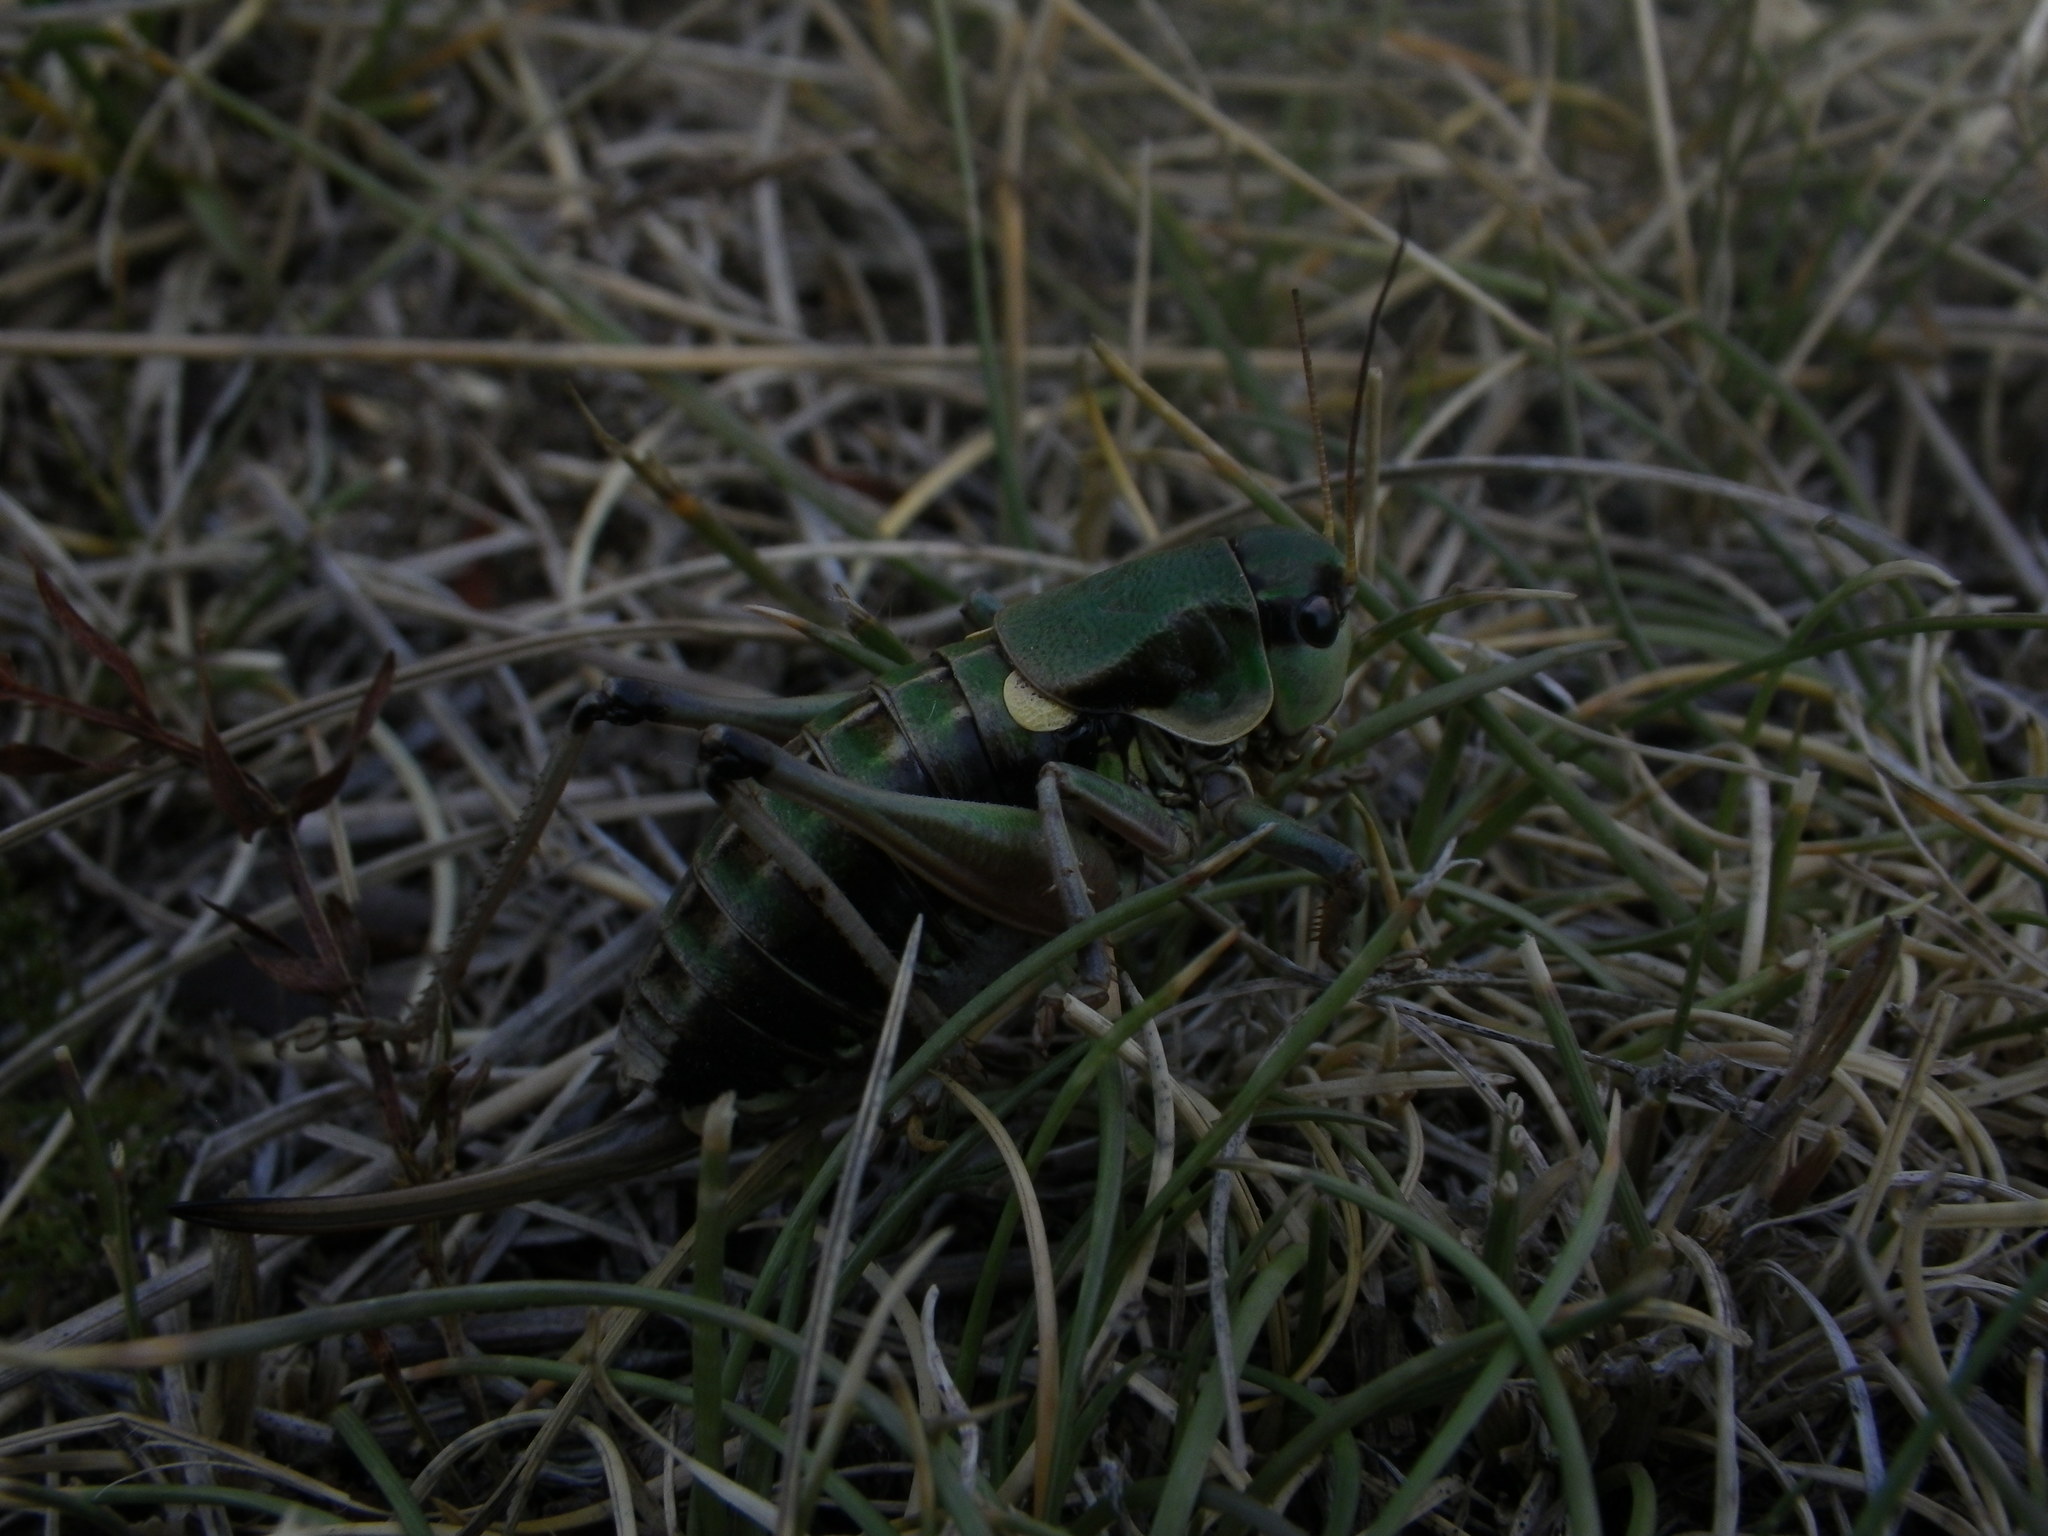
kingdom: Animalia
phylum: Arthropoda
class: Insecta
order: Orthoptera
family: Tettigoniidae
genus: Anonconotus
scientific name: Anonconotus ghilianii
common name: Ghiliani's alpine bush-cricket
